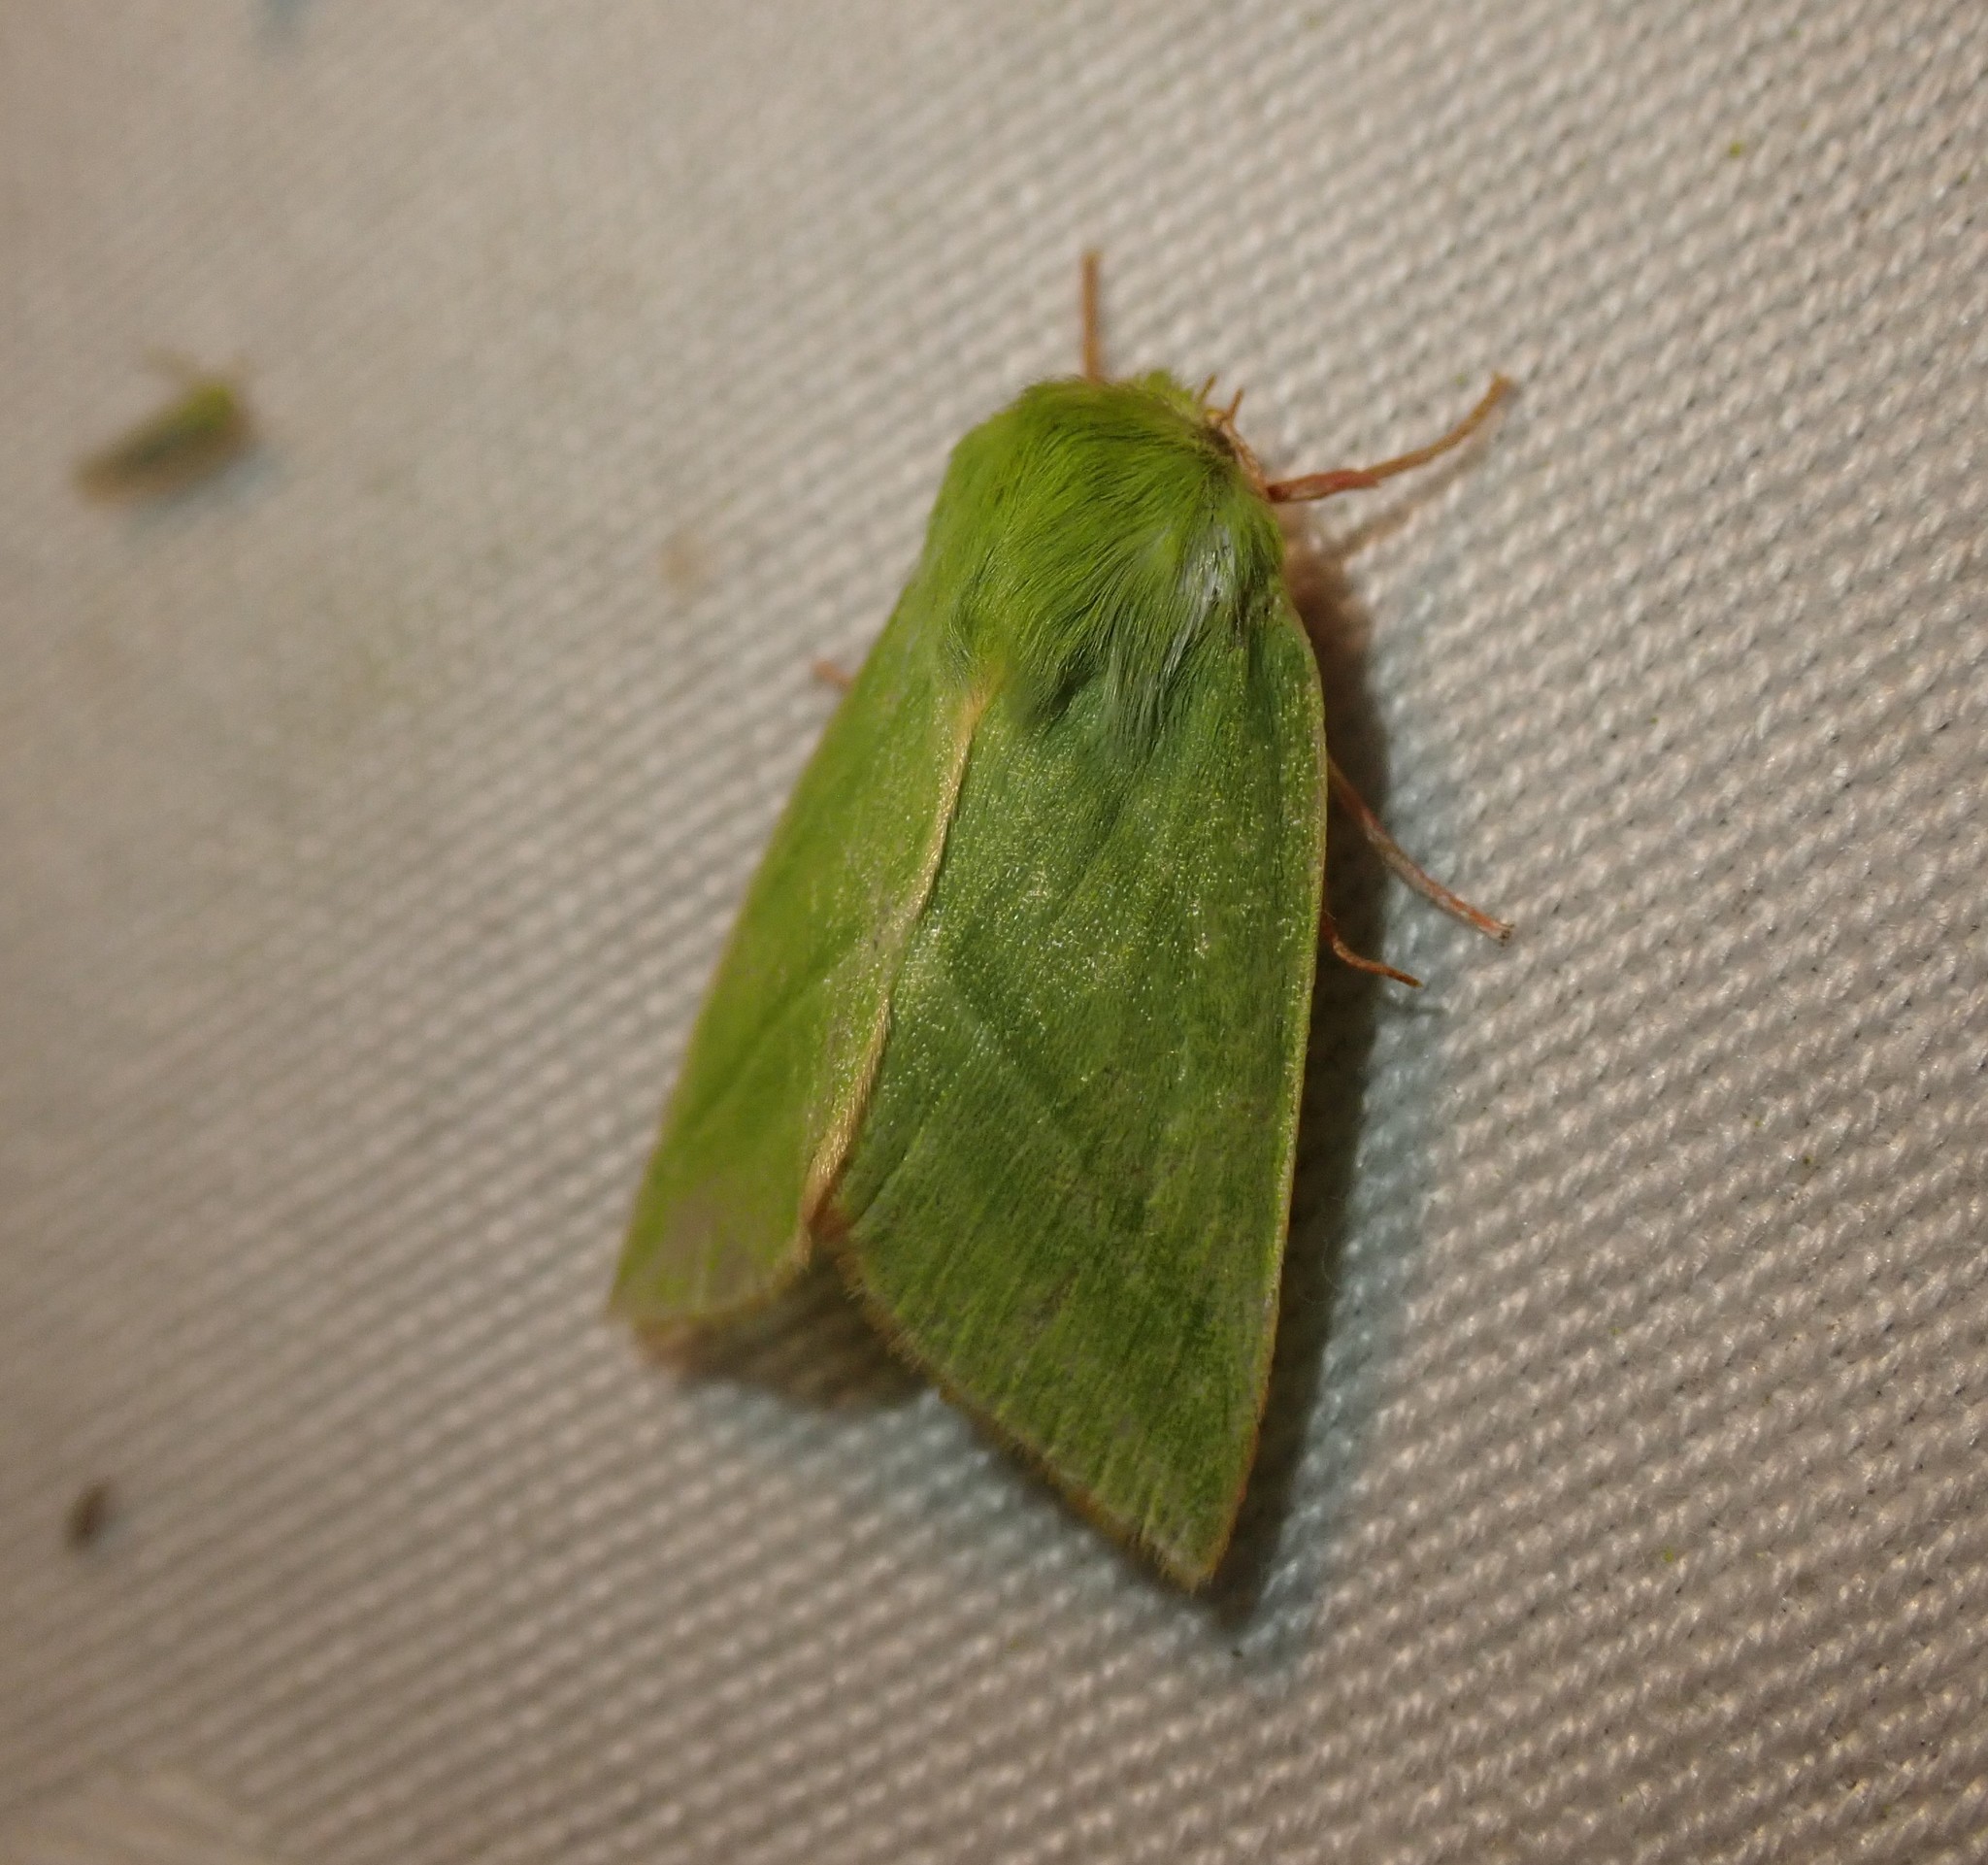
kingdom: Animalia
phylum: Arthropoda
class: Insecta
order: Lepidoptera
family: Nolidae
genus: Pseudoips
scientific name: Pseudoips prasinana
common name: Green silver-lines
